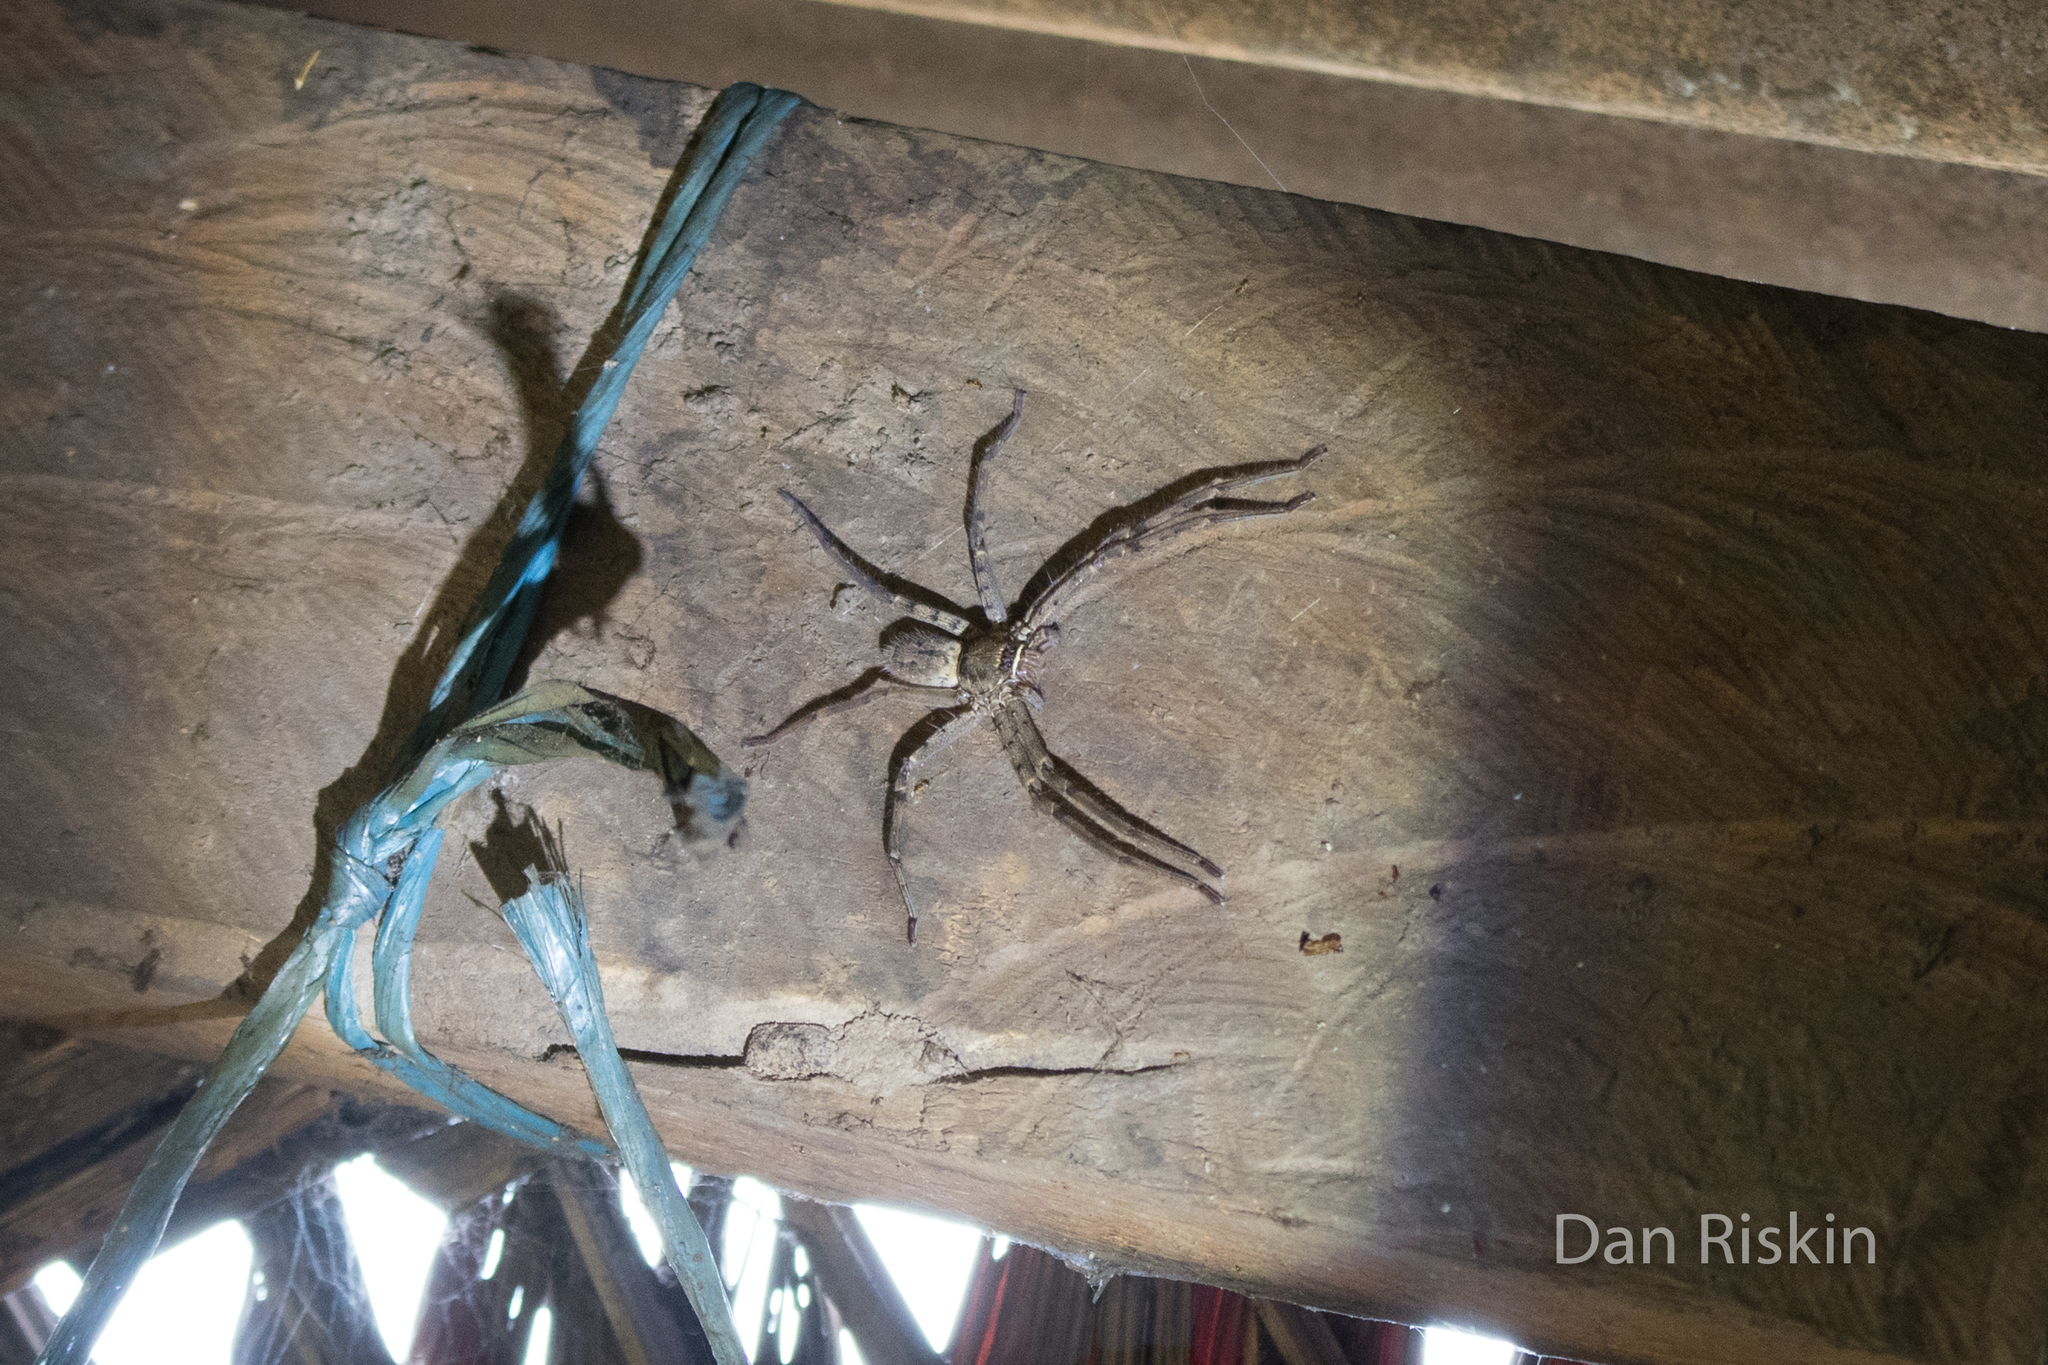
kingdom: Animalia
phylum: Arthropoda
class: Arachnida
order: Araneae
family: Sparassidae
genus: Heteropoda
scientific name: Heteropoda venatoria
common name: Huntsman spider
